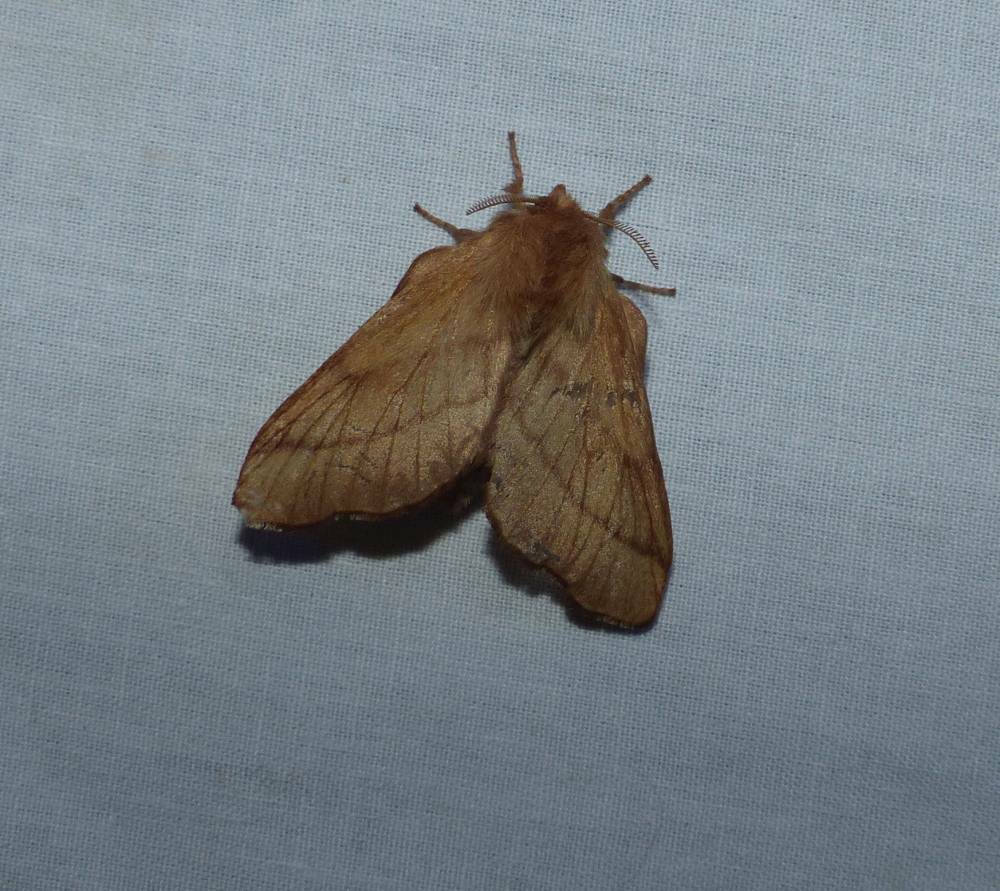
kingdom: Animalia
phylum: Arthropoda
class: Insecta
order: Lepidoptera
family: Lasiocampidae
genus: Malacosoma
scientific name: Malacosoma disstria
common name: Forest tent caterpillar
